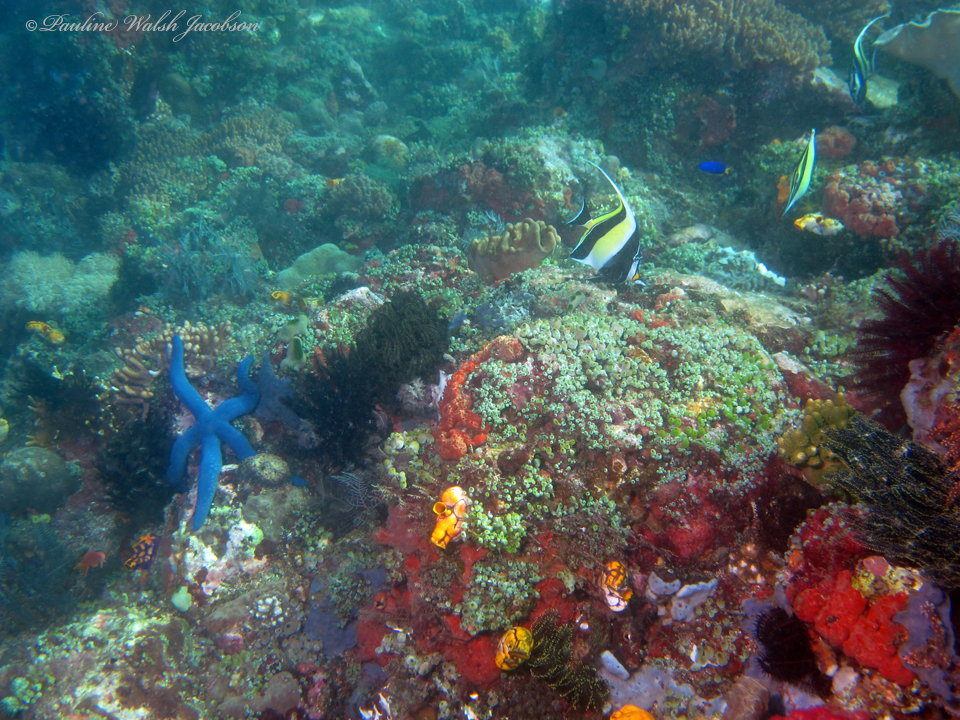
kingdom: Animalia
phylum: Chordata
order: Perciformes
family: Zanclidae
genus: Zanclus
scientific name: Zanclus cornutus
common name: Moorish idol
